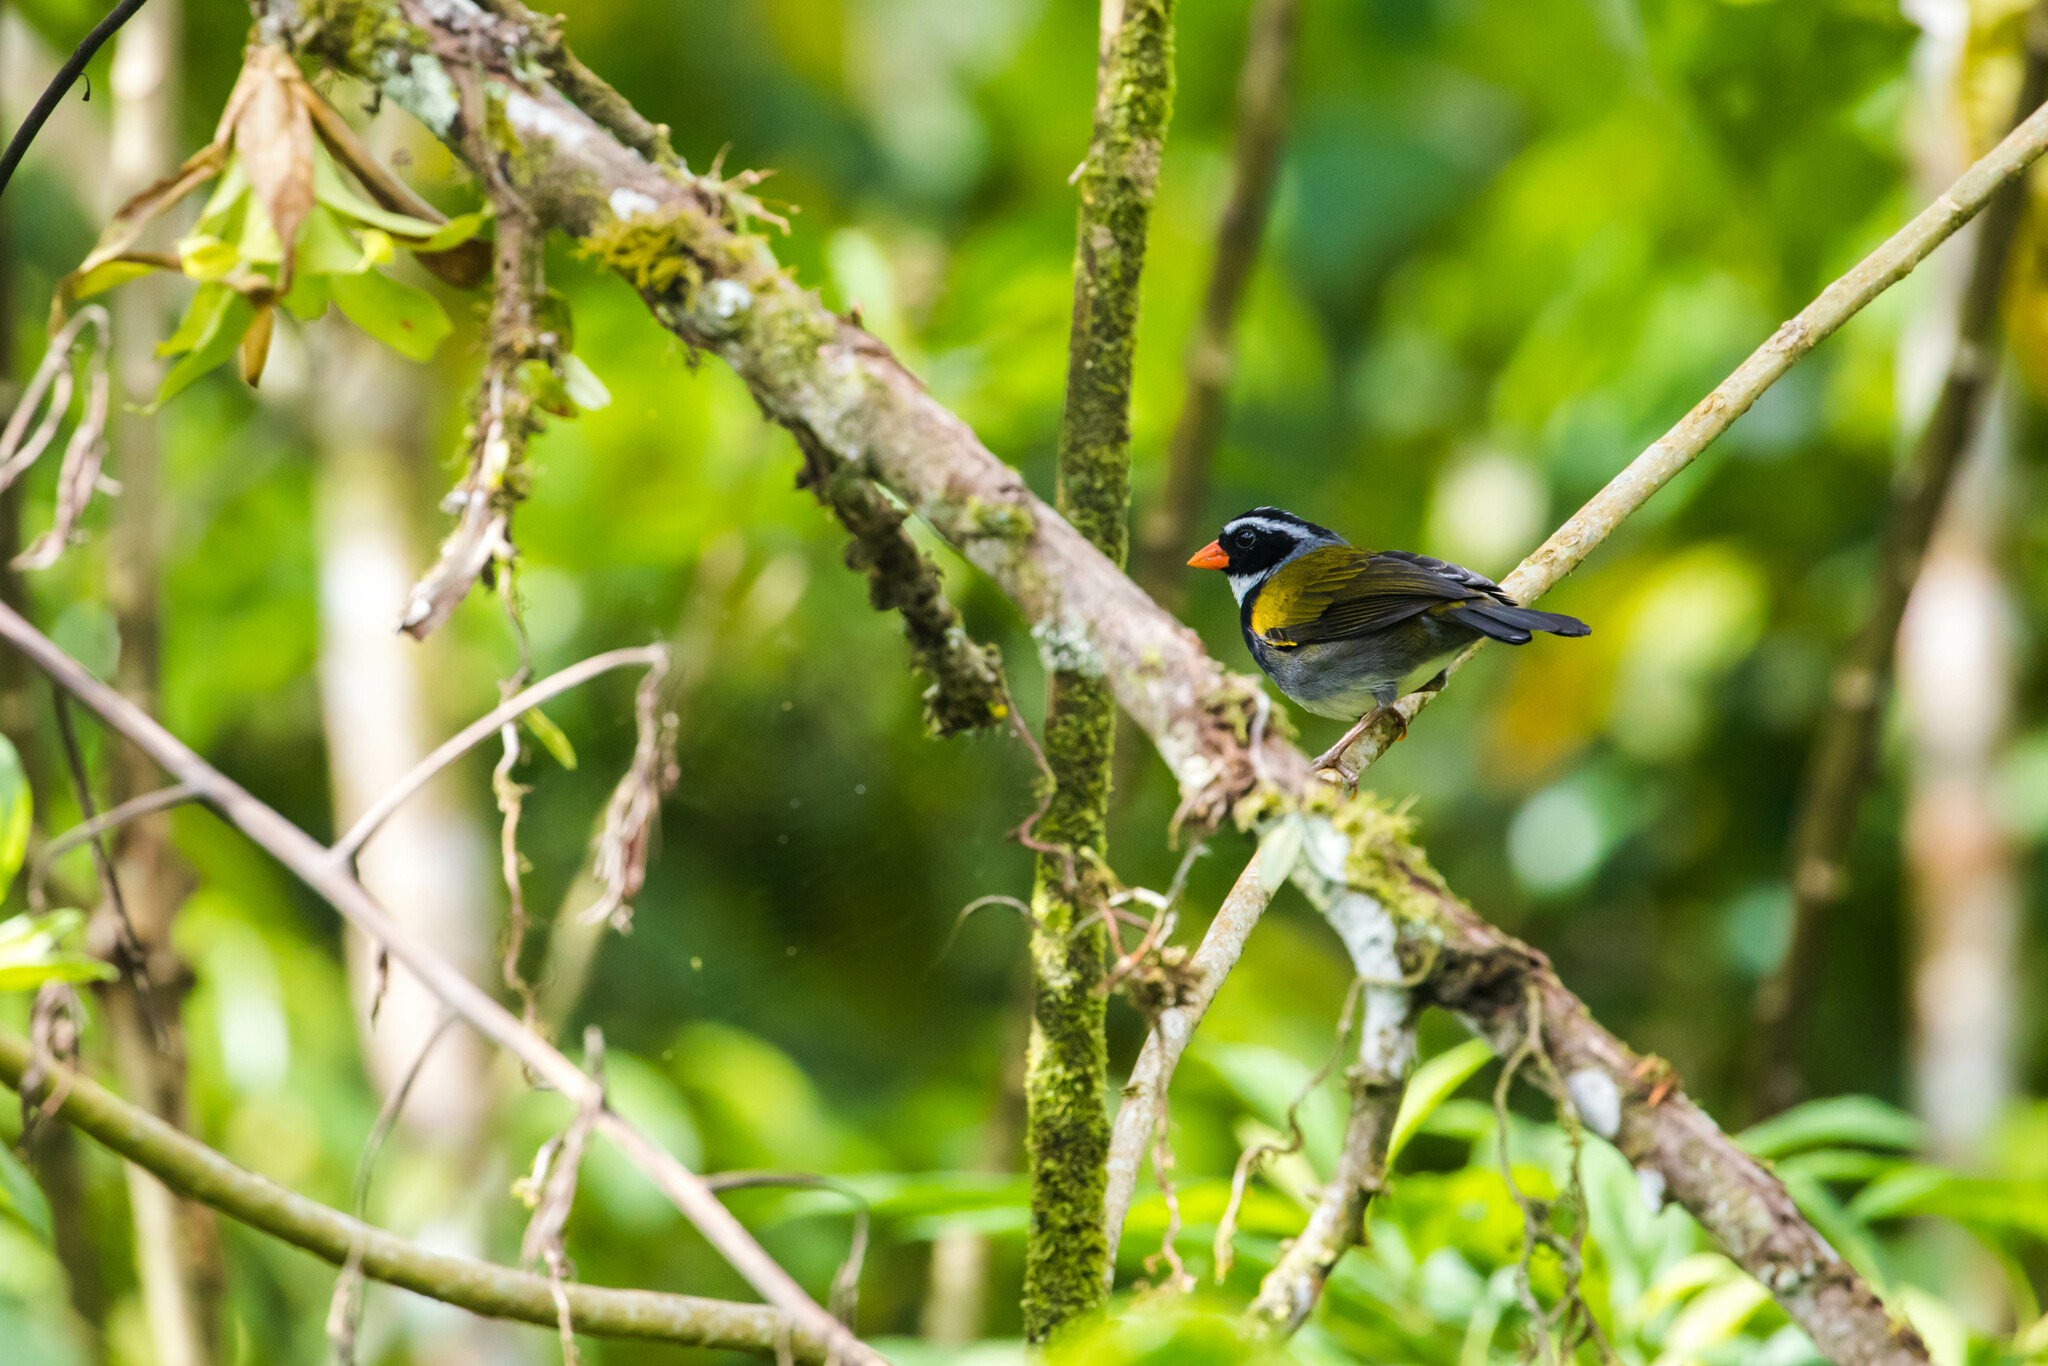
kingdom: Animalia
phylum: Chordata
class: Aves
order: Passeriformes
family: Passerellidae
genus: Arremon
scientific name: Arremon aurantiirostris
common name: Orange-billed sparrow
